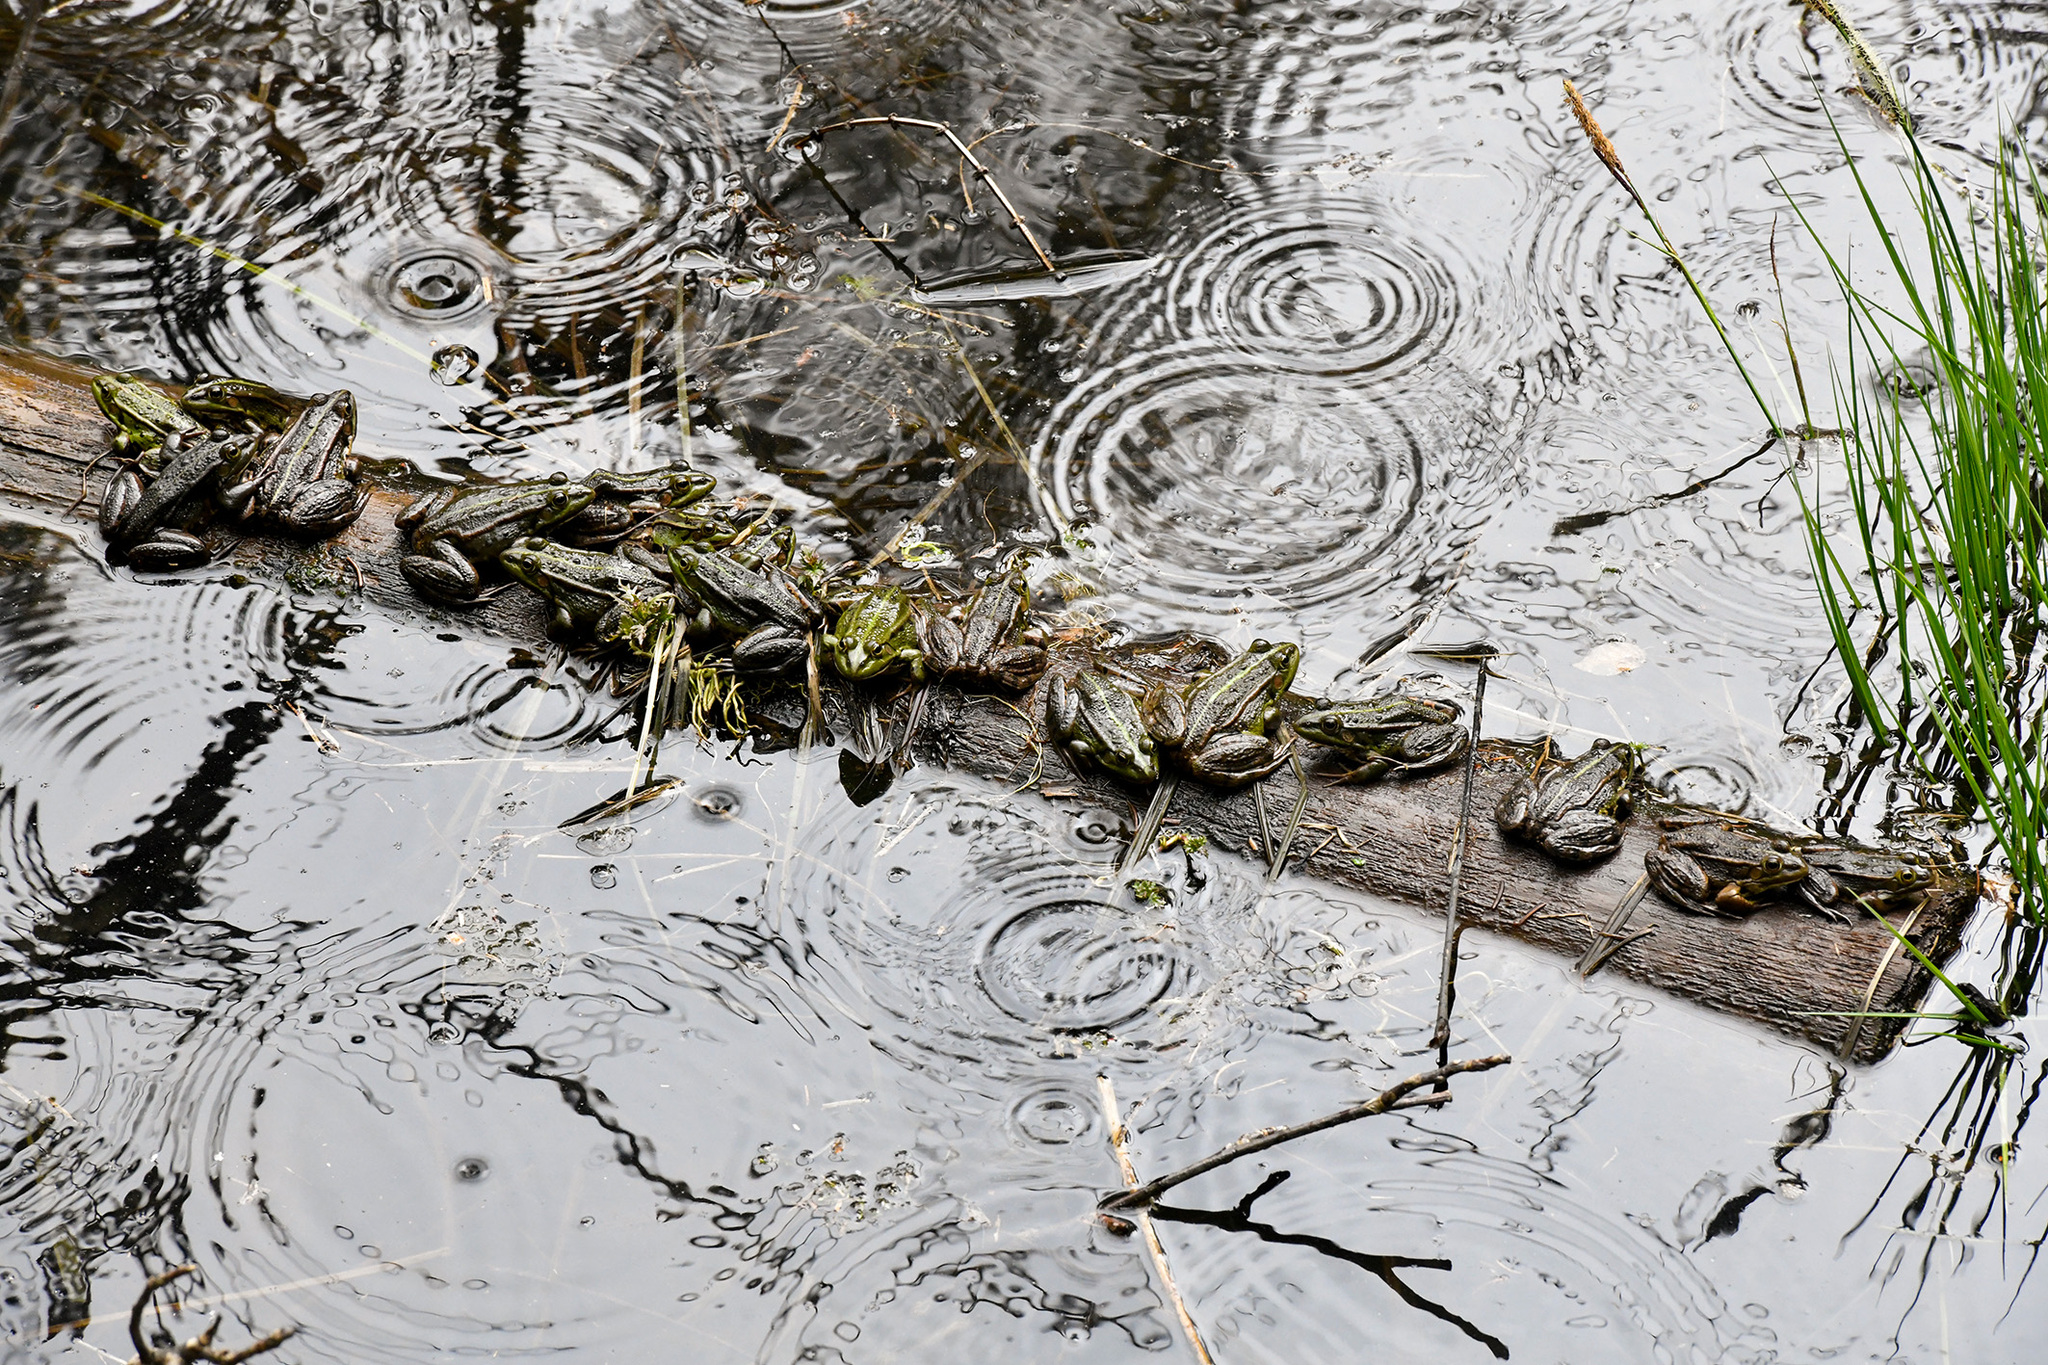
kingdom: Animalia
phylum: Chordata
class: Amphibia
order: Anura
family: Ranidae
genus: Pelophylax
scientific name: Pelophylax
